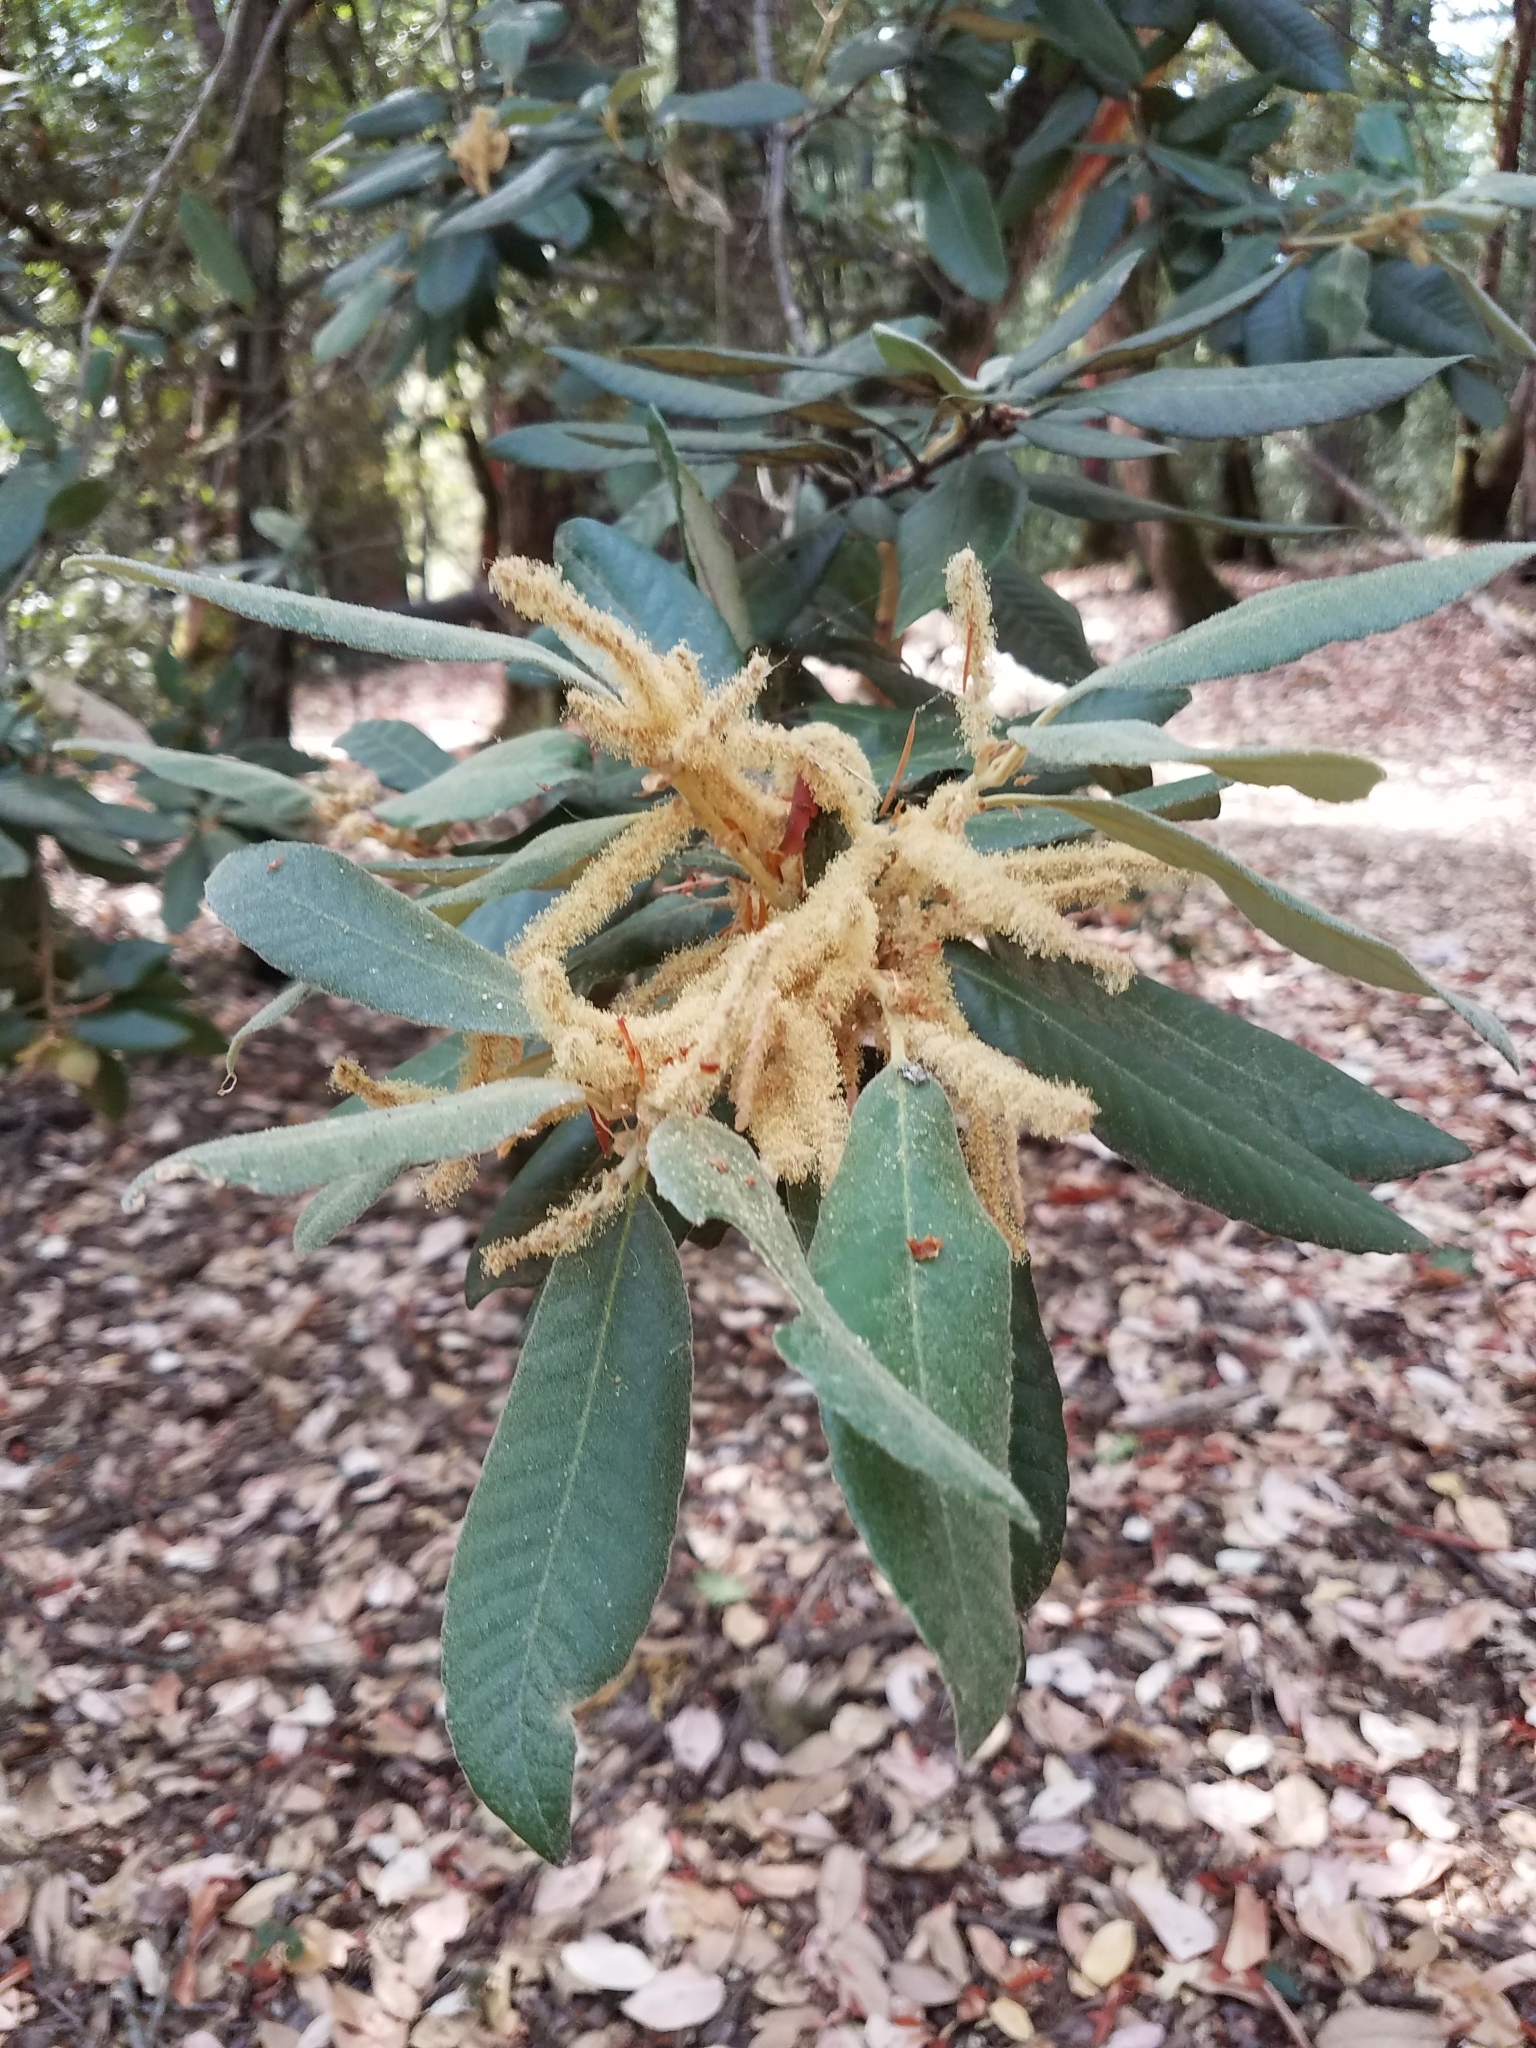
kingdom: Plantae
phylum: Tracheophyta
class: Magnoliopsida
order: Fagales
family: Fagaceae
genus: Notholithocarpus
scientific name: Notholithocarpus densiflorus
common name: Tan bark oak
